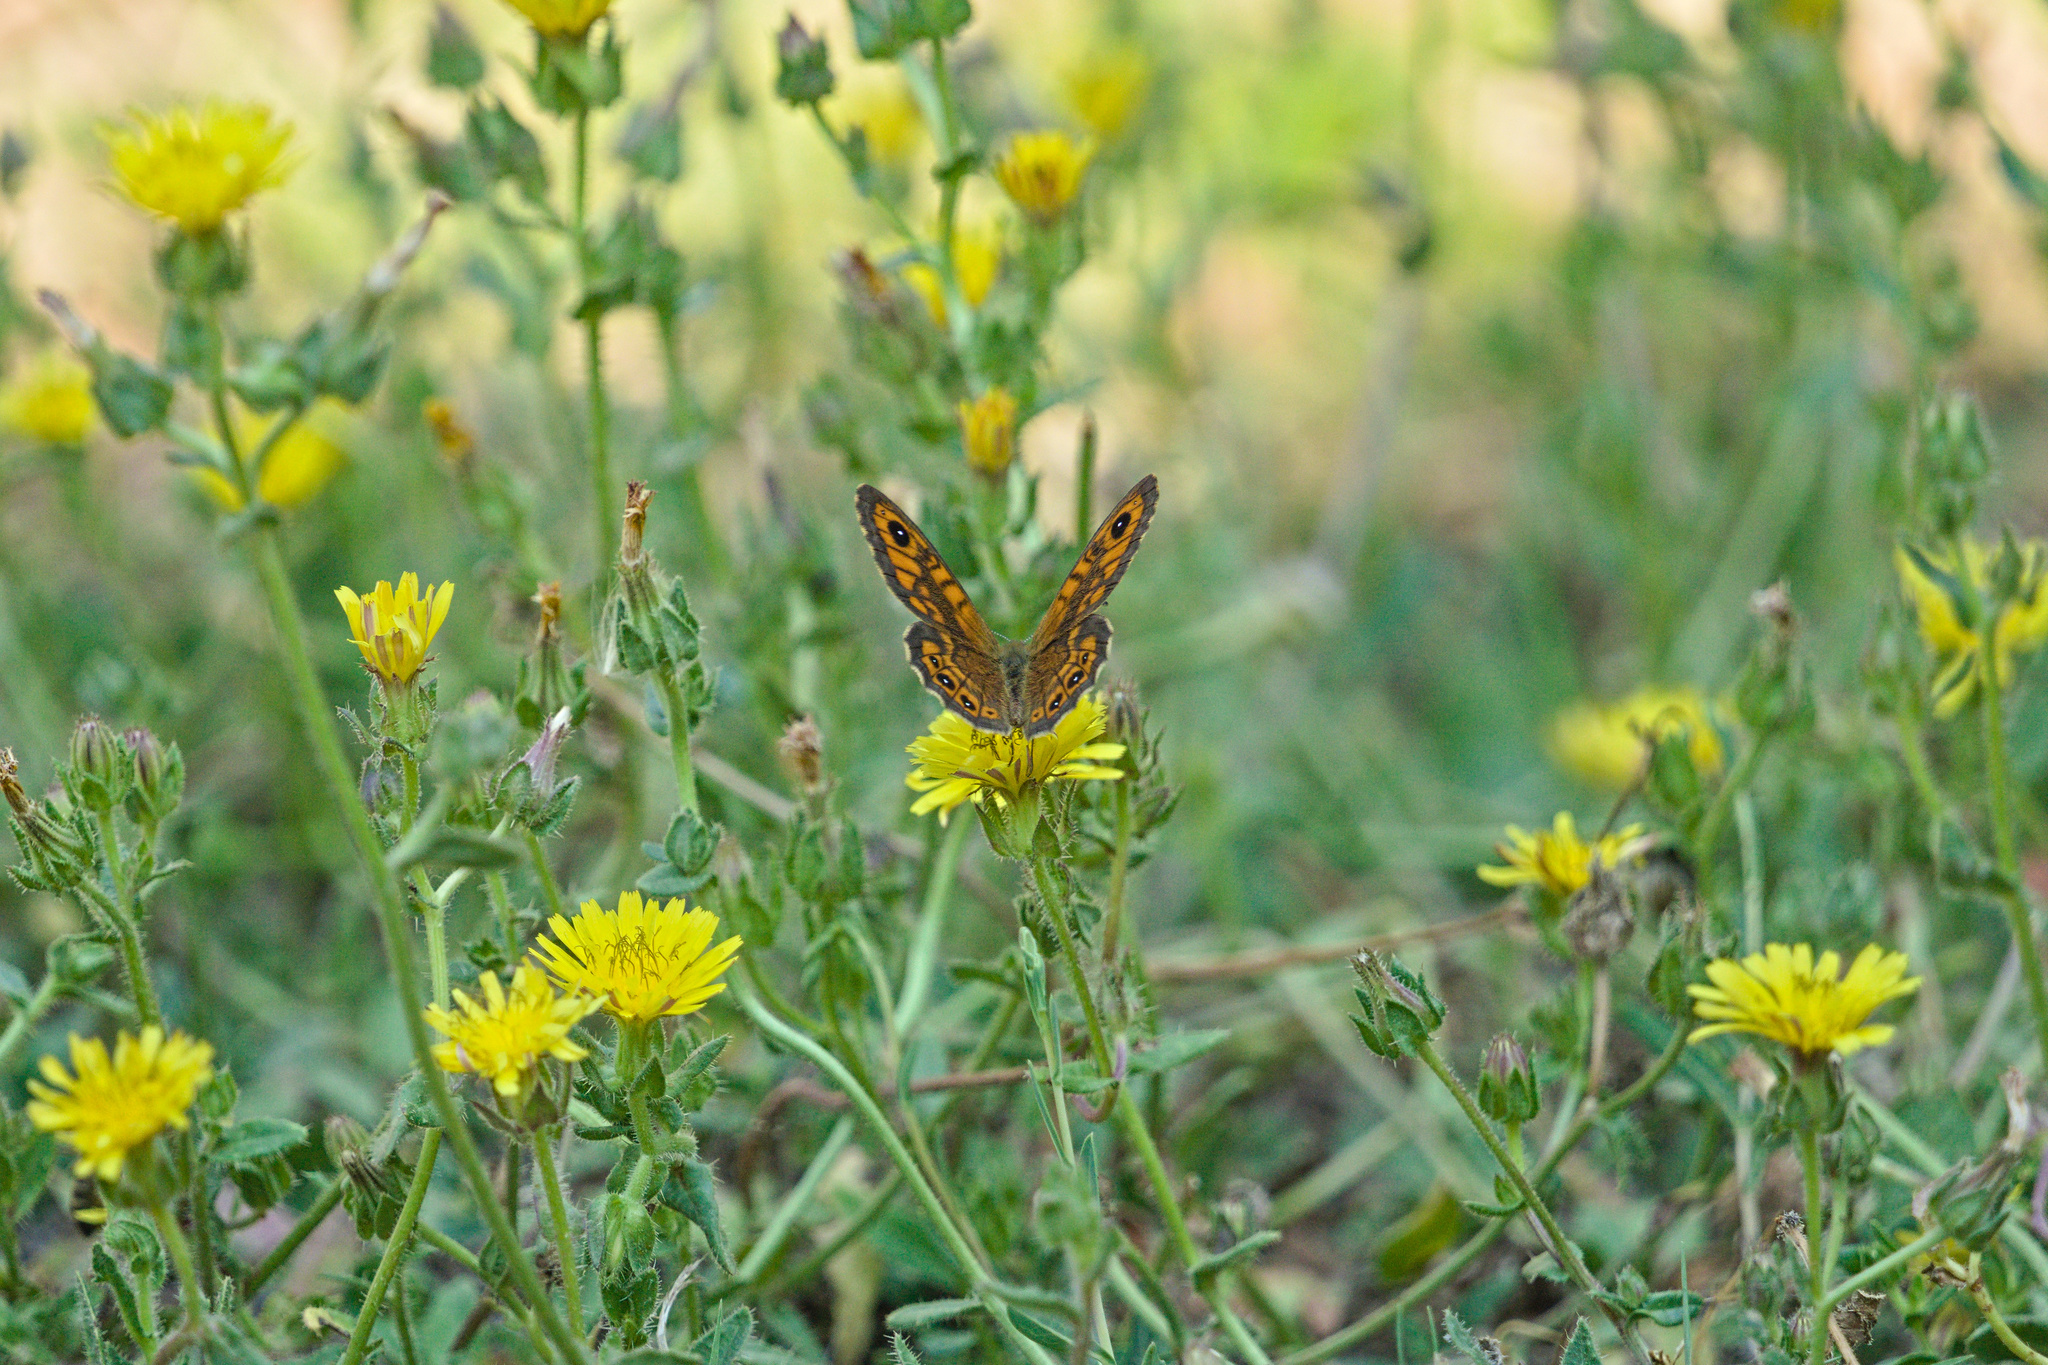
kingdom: Plantae
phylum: Tracheophyta
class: Magnoliopsida
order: Asterales
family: Asteraceae
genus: Helminthotheca
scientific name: Helminthotheca echioides
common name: Ox-tongue
